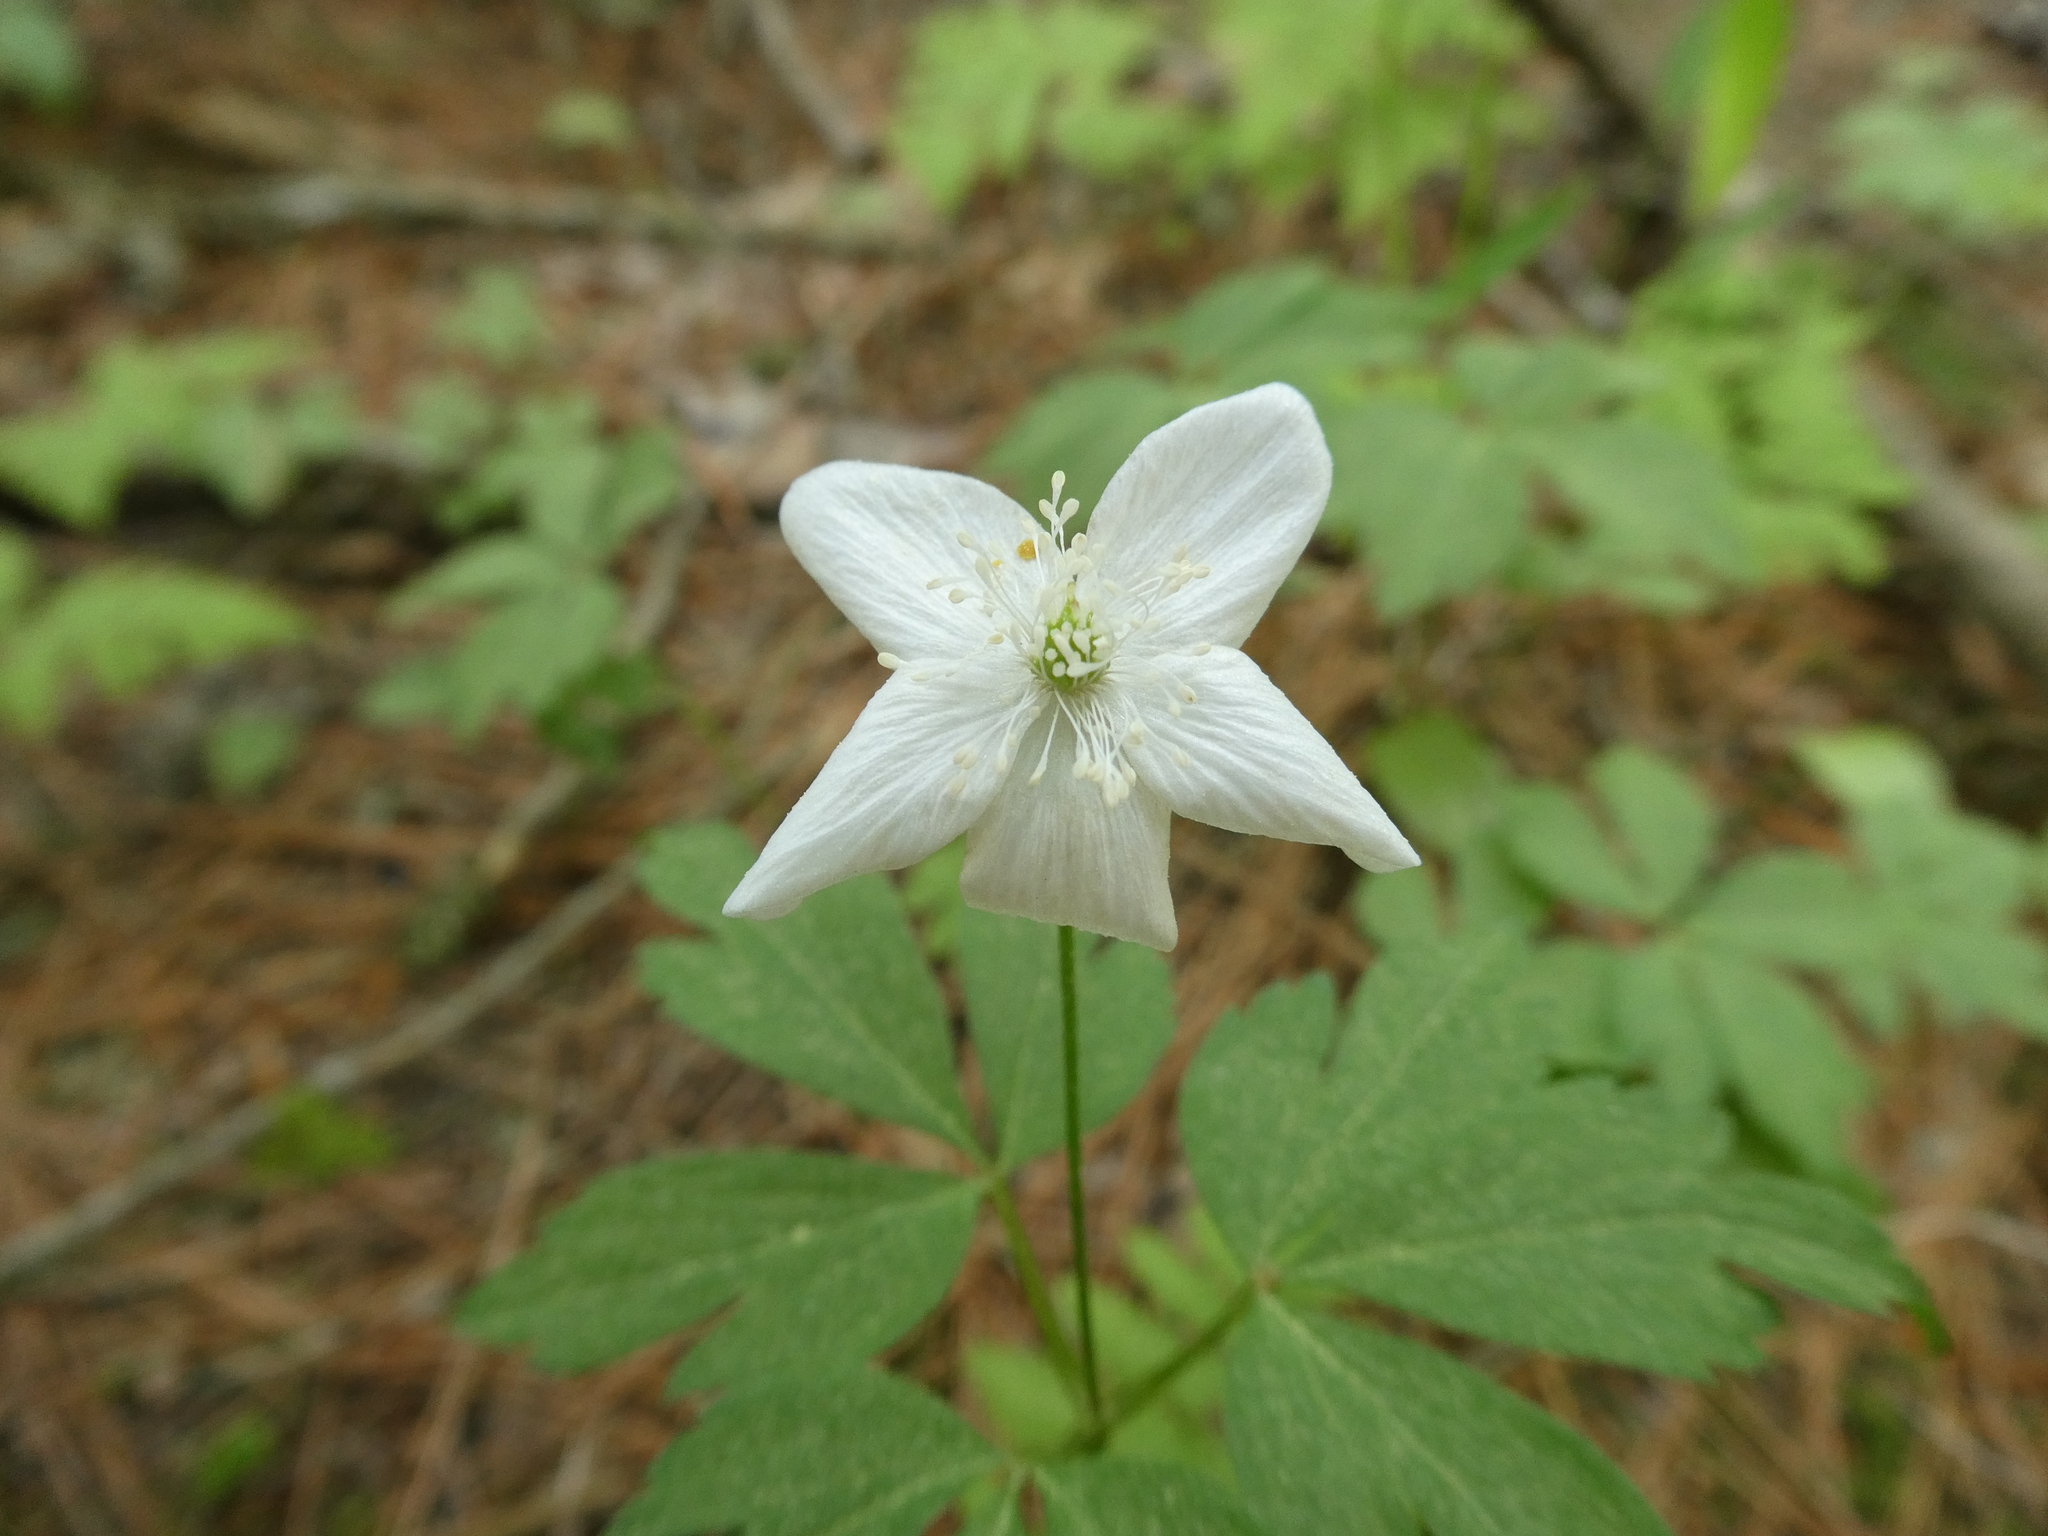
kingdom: Plantae
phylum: Tracheophyta
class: Magnoliopsida
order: Ranunculales
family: Ranunculaceae
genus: Anemone
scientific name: Anemone quinquefolia
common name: Wood anemone
